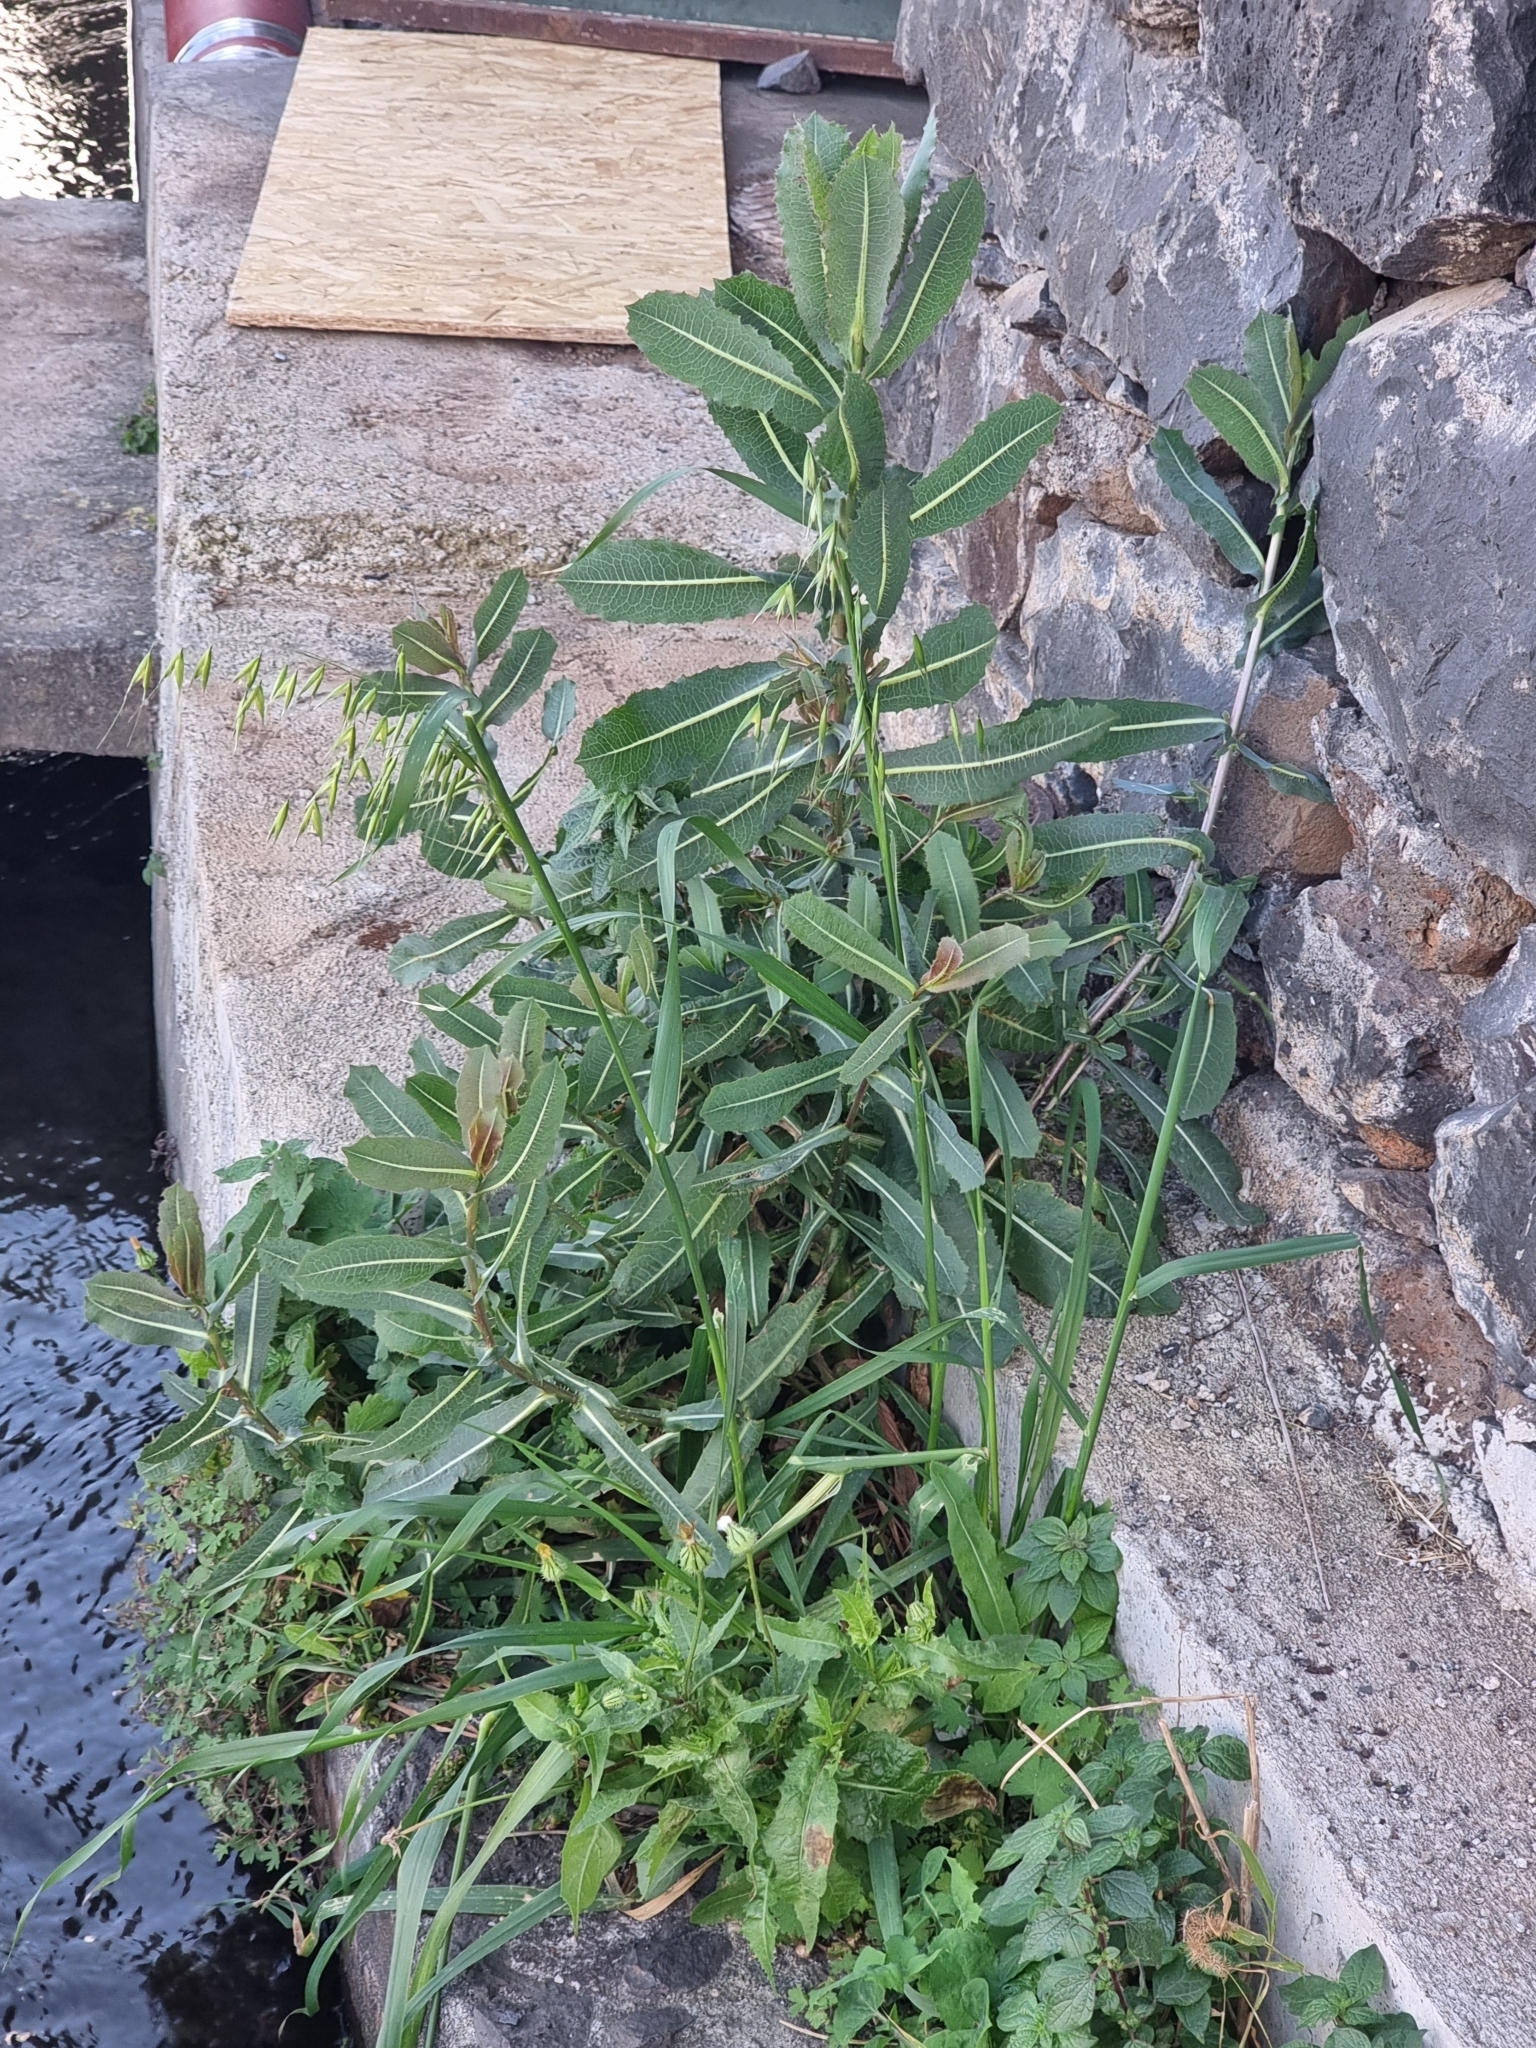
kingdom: Plantae
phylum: Tracheophyta
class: Magnoliopsida
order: Asterales
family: Asteraceae
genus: Lactuca
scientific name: Lactuca serriola
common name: Prickly lettuce
